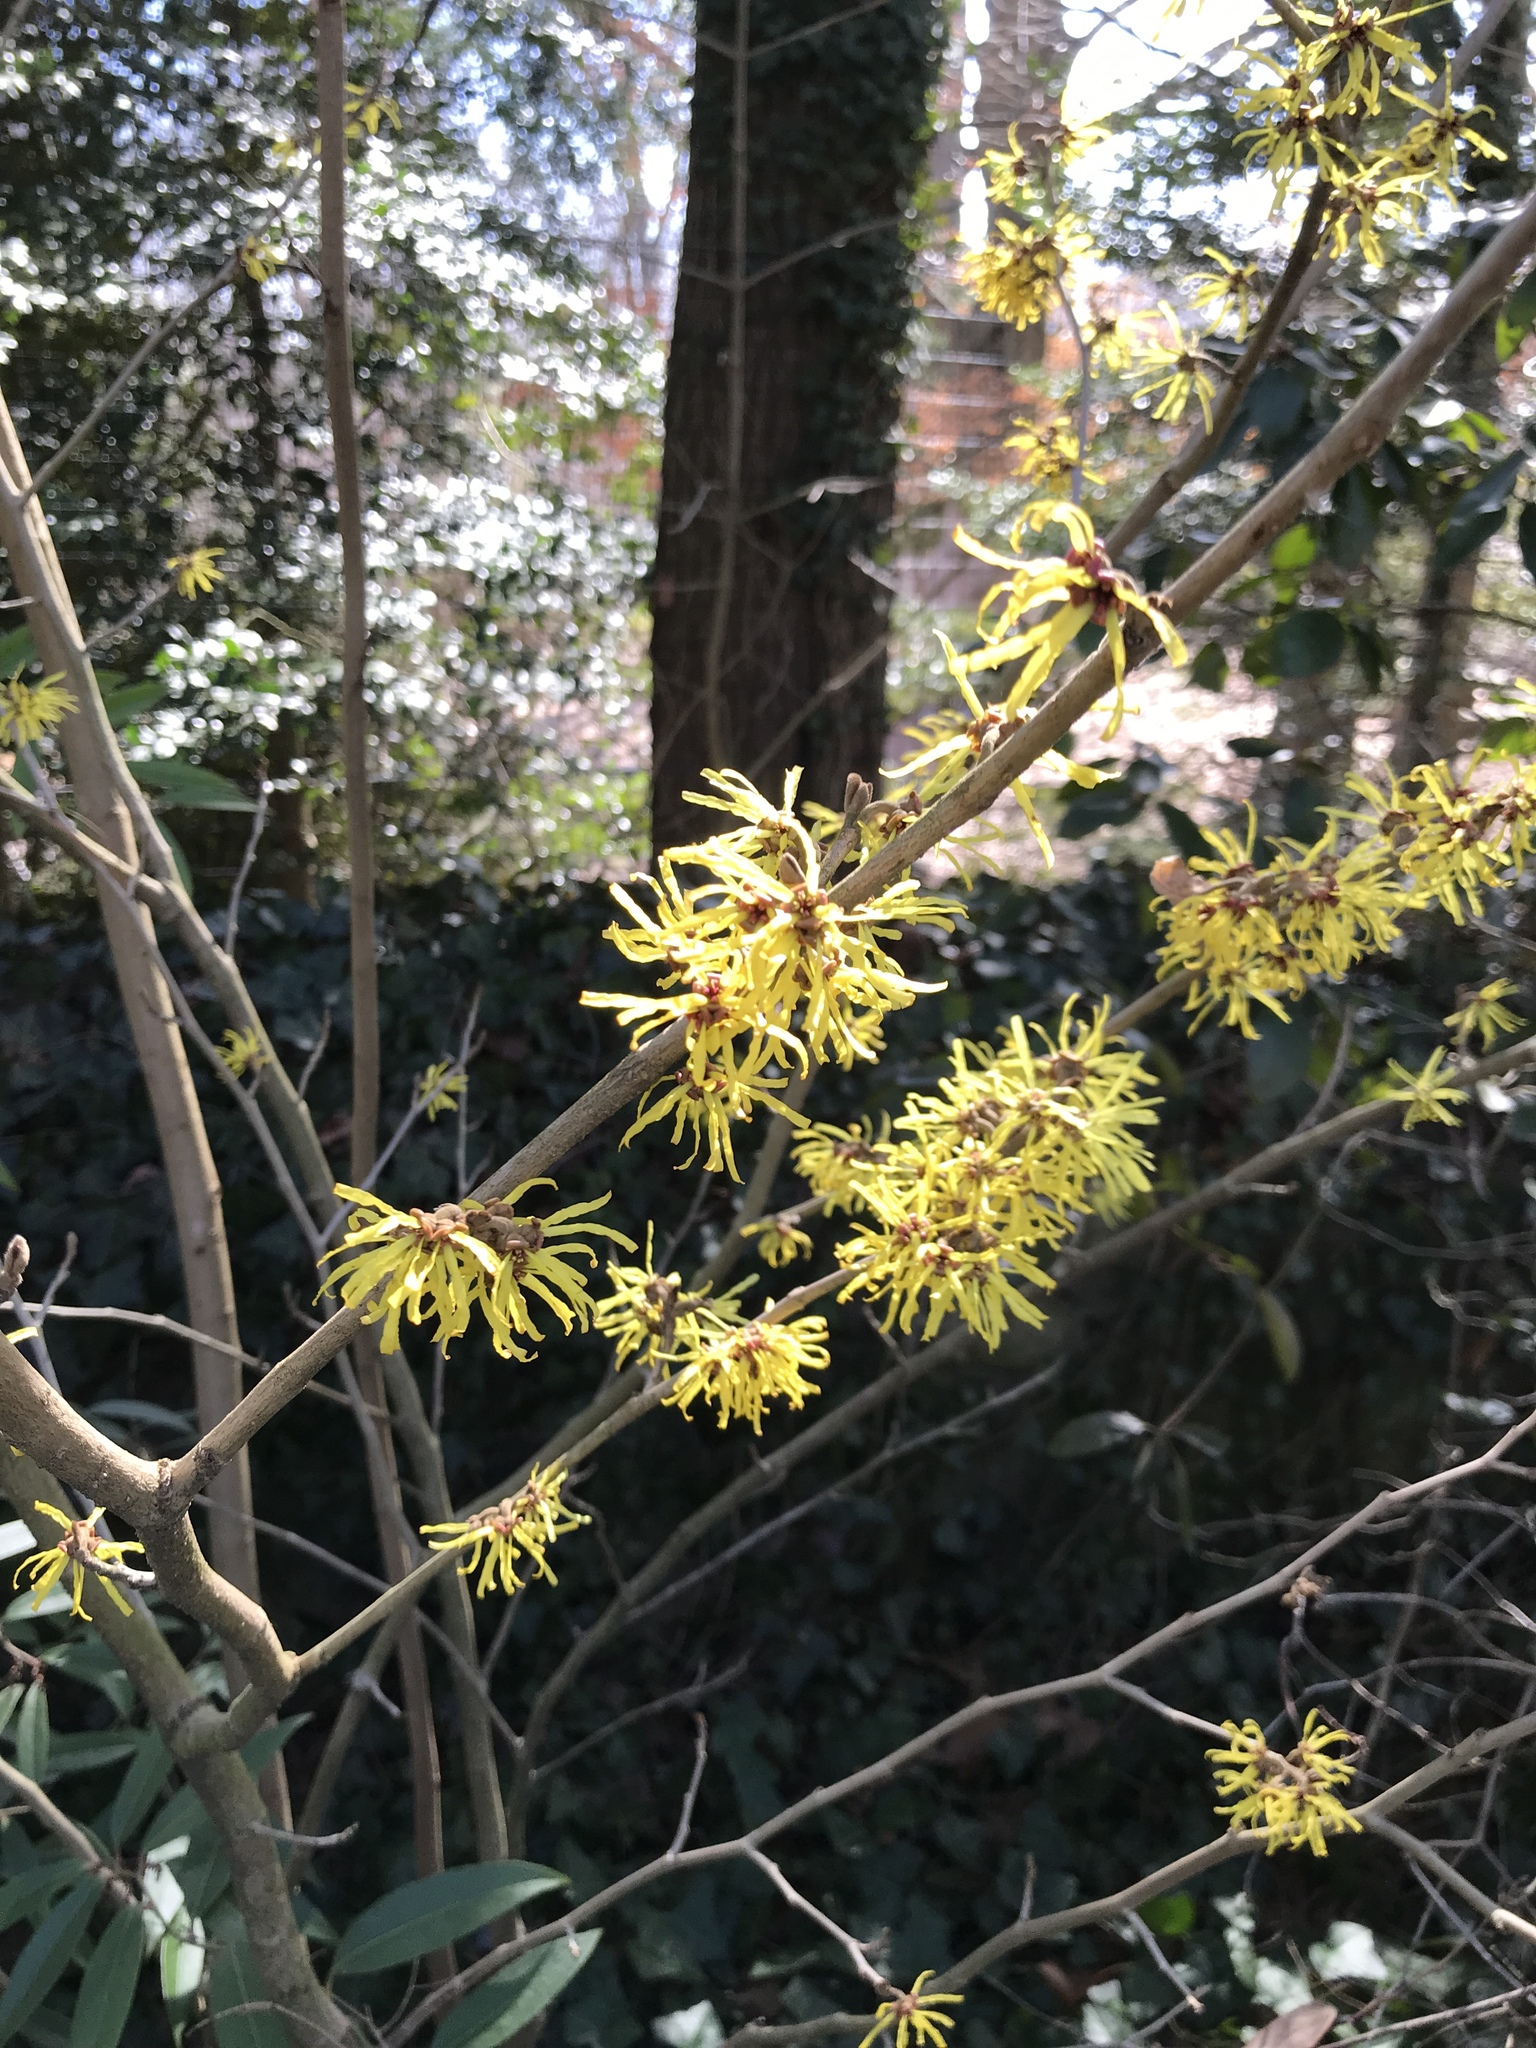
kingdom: Plantae
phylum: Tracheophyta
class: Magnoliopsida
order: Saxifragales
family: Hamamelidaceae
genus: Hamamelis
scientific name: Hamamelis
